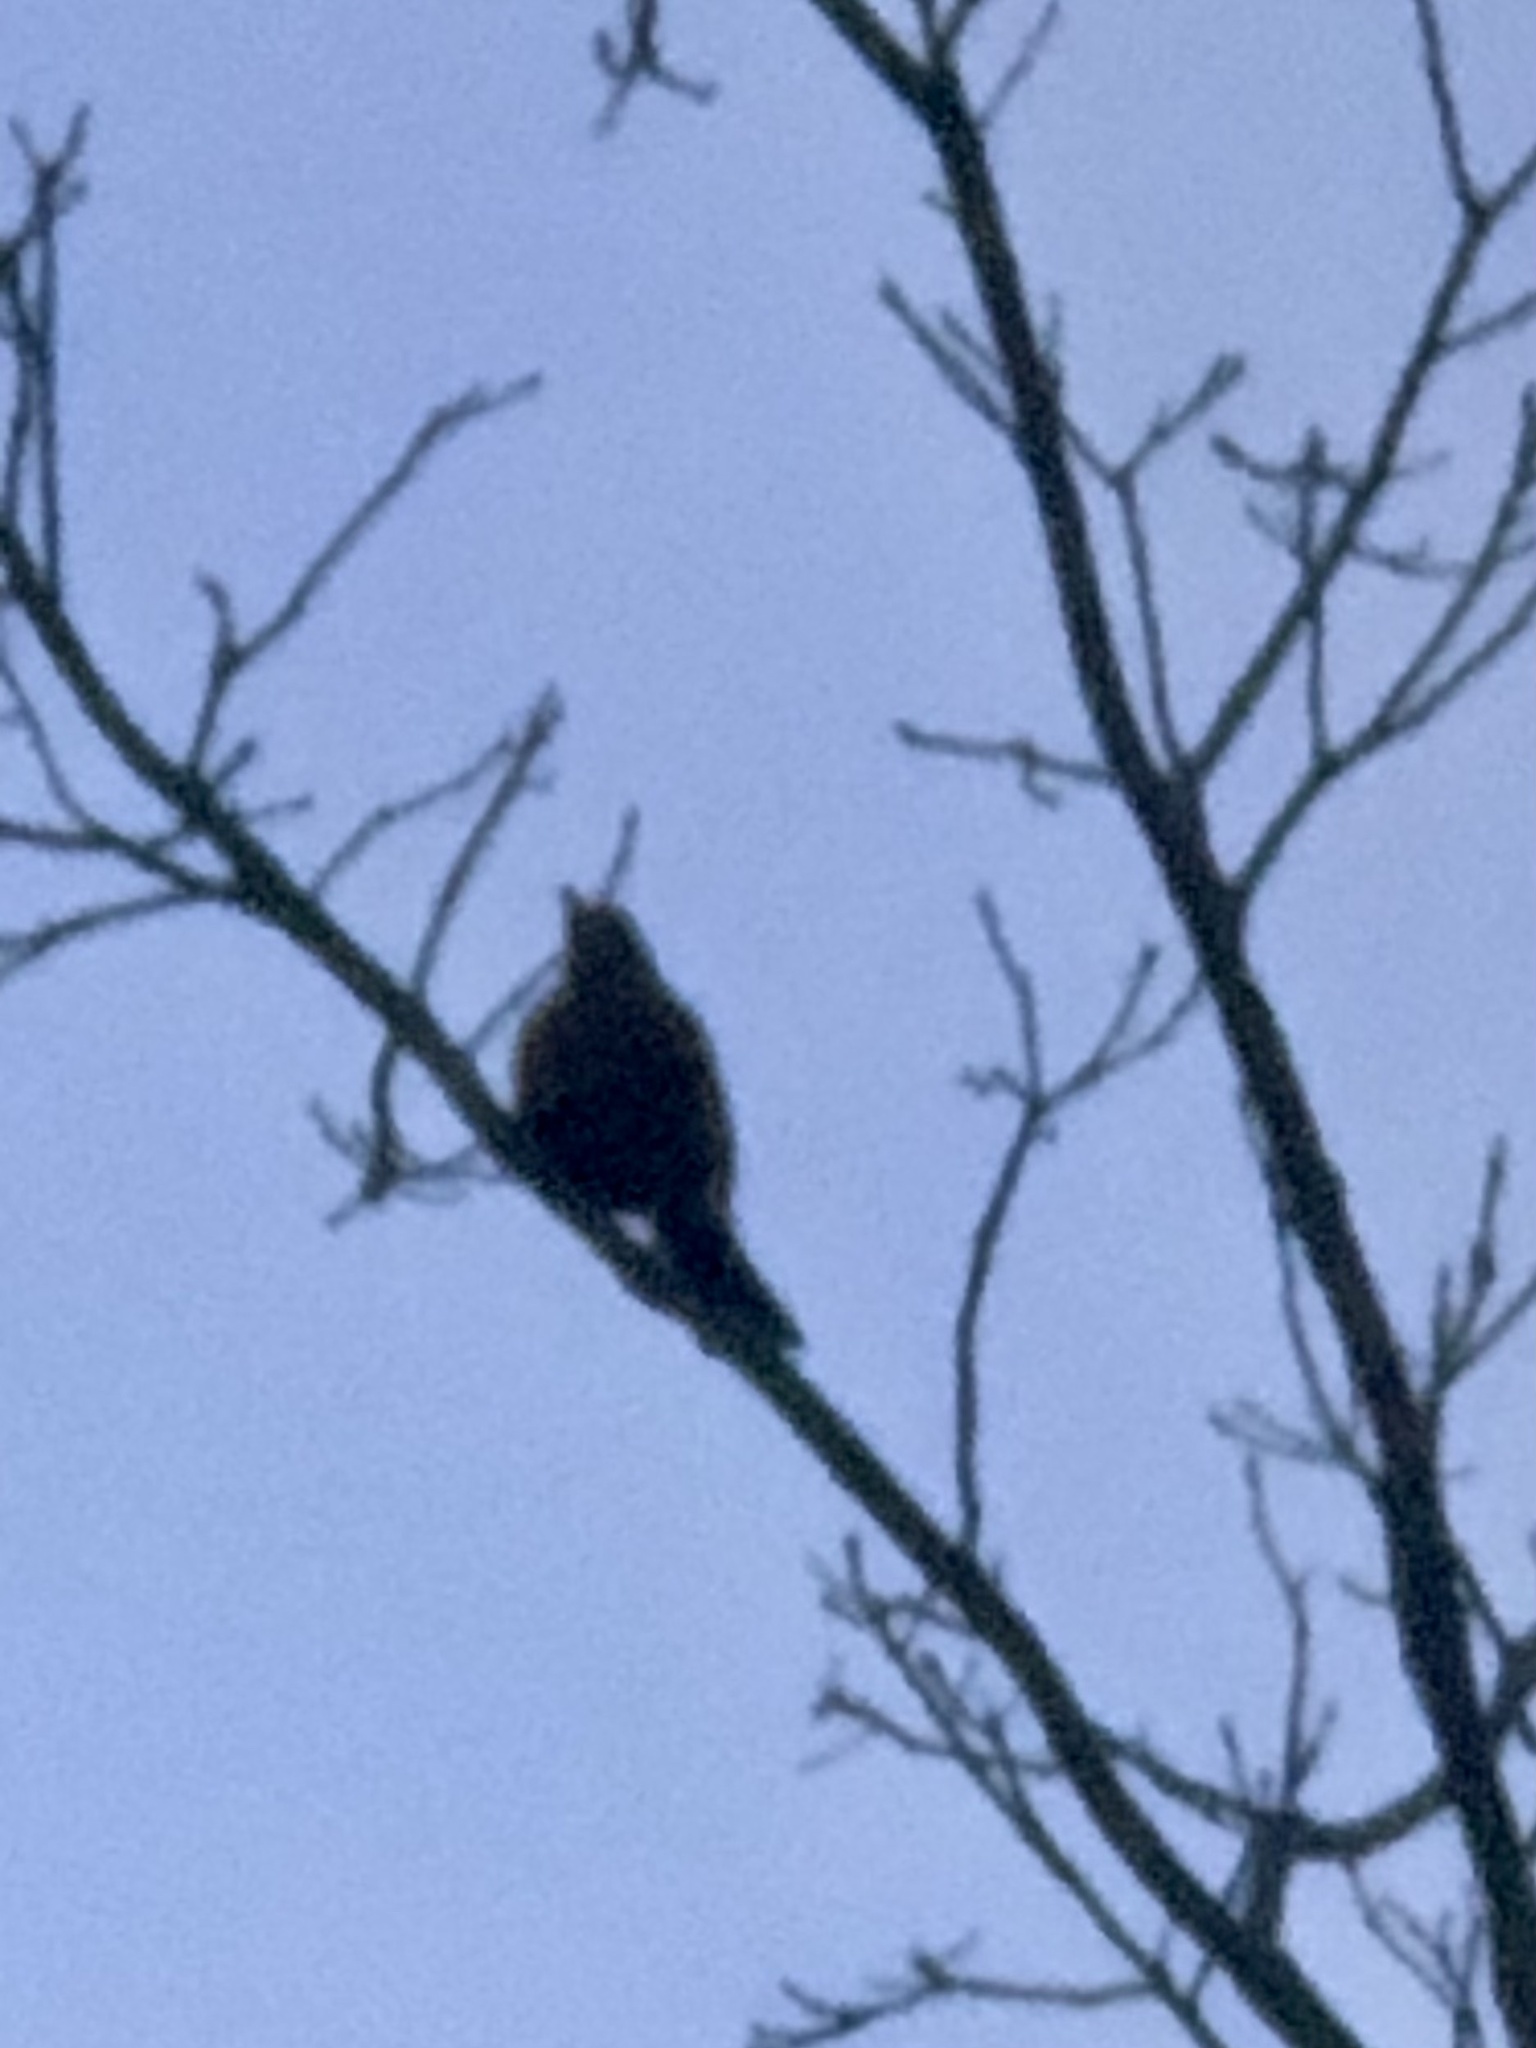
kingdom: Animalia
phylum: Chordata
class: Aves
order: Passeriformes
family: Turdidae
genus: Turdus
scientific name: Turdus migratorius
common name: American robin
